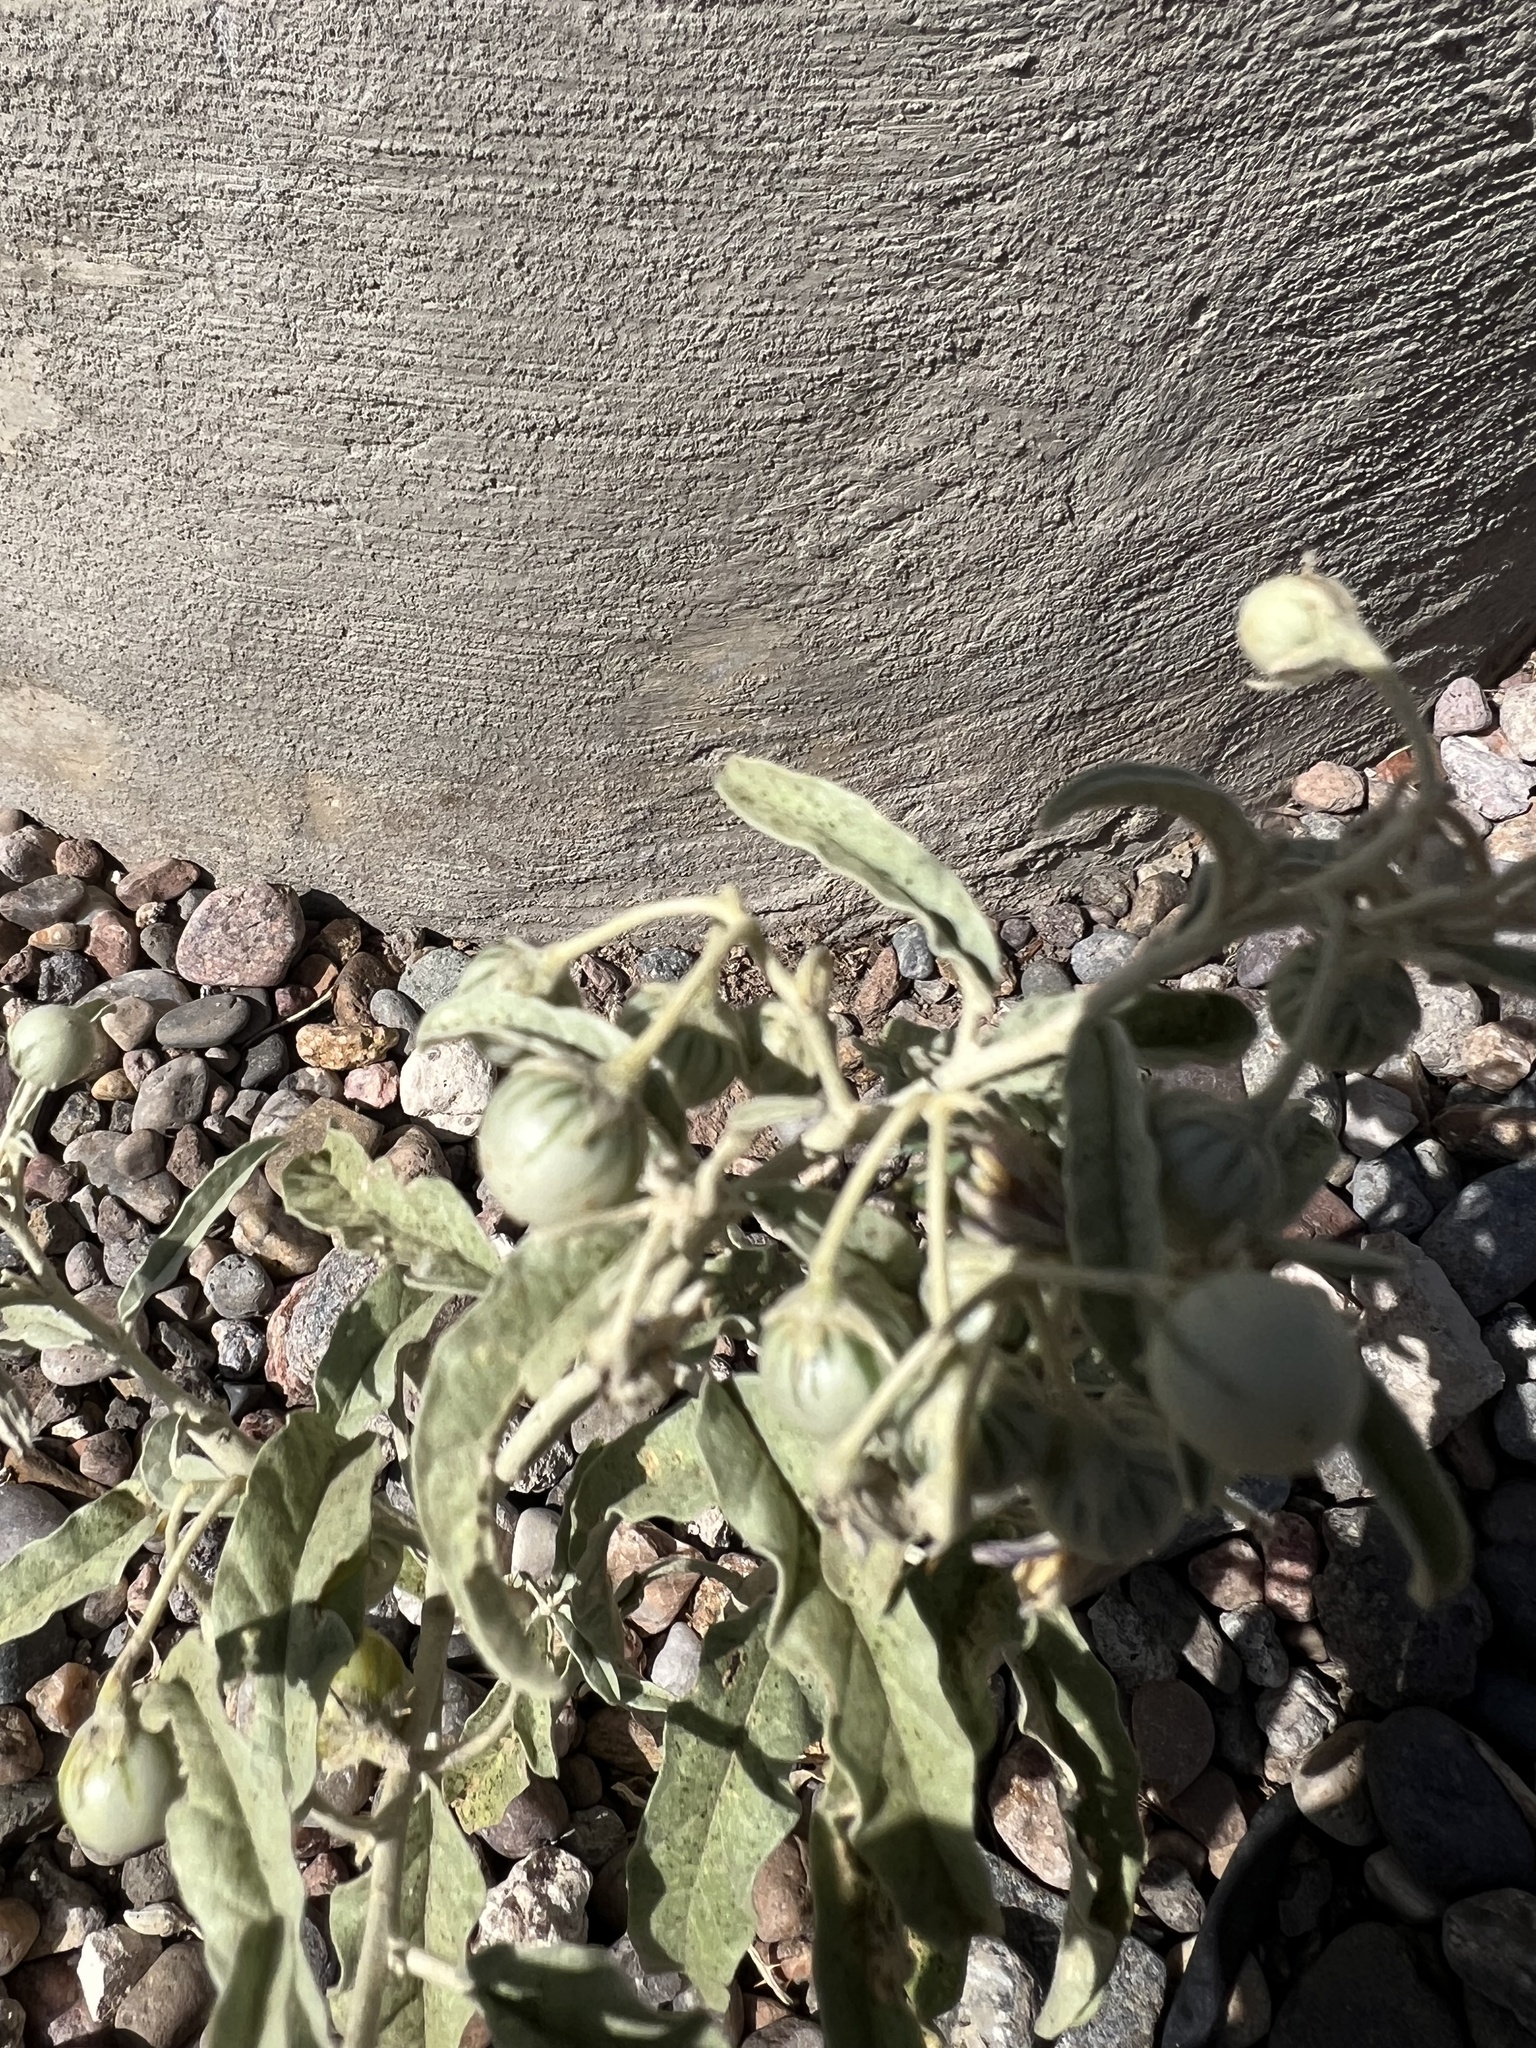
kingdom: Plantae
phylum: Tracheophyta
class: Magnoliopsida
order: Solanales
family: Solanaceae
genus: Solanum
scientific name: Solanum elaeagnifolium
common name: Silverleaf nightshade
